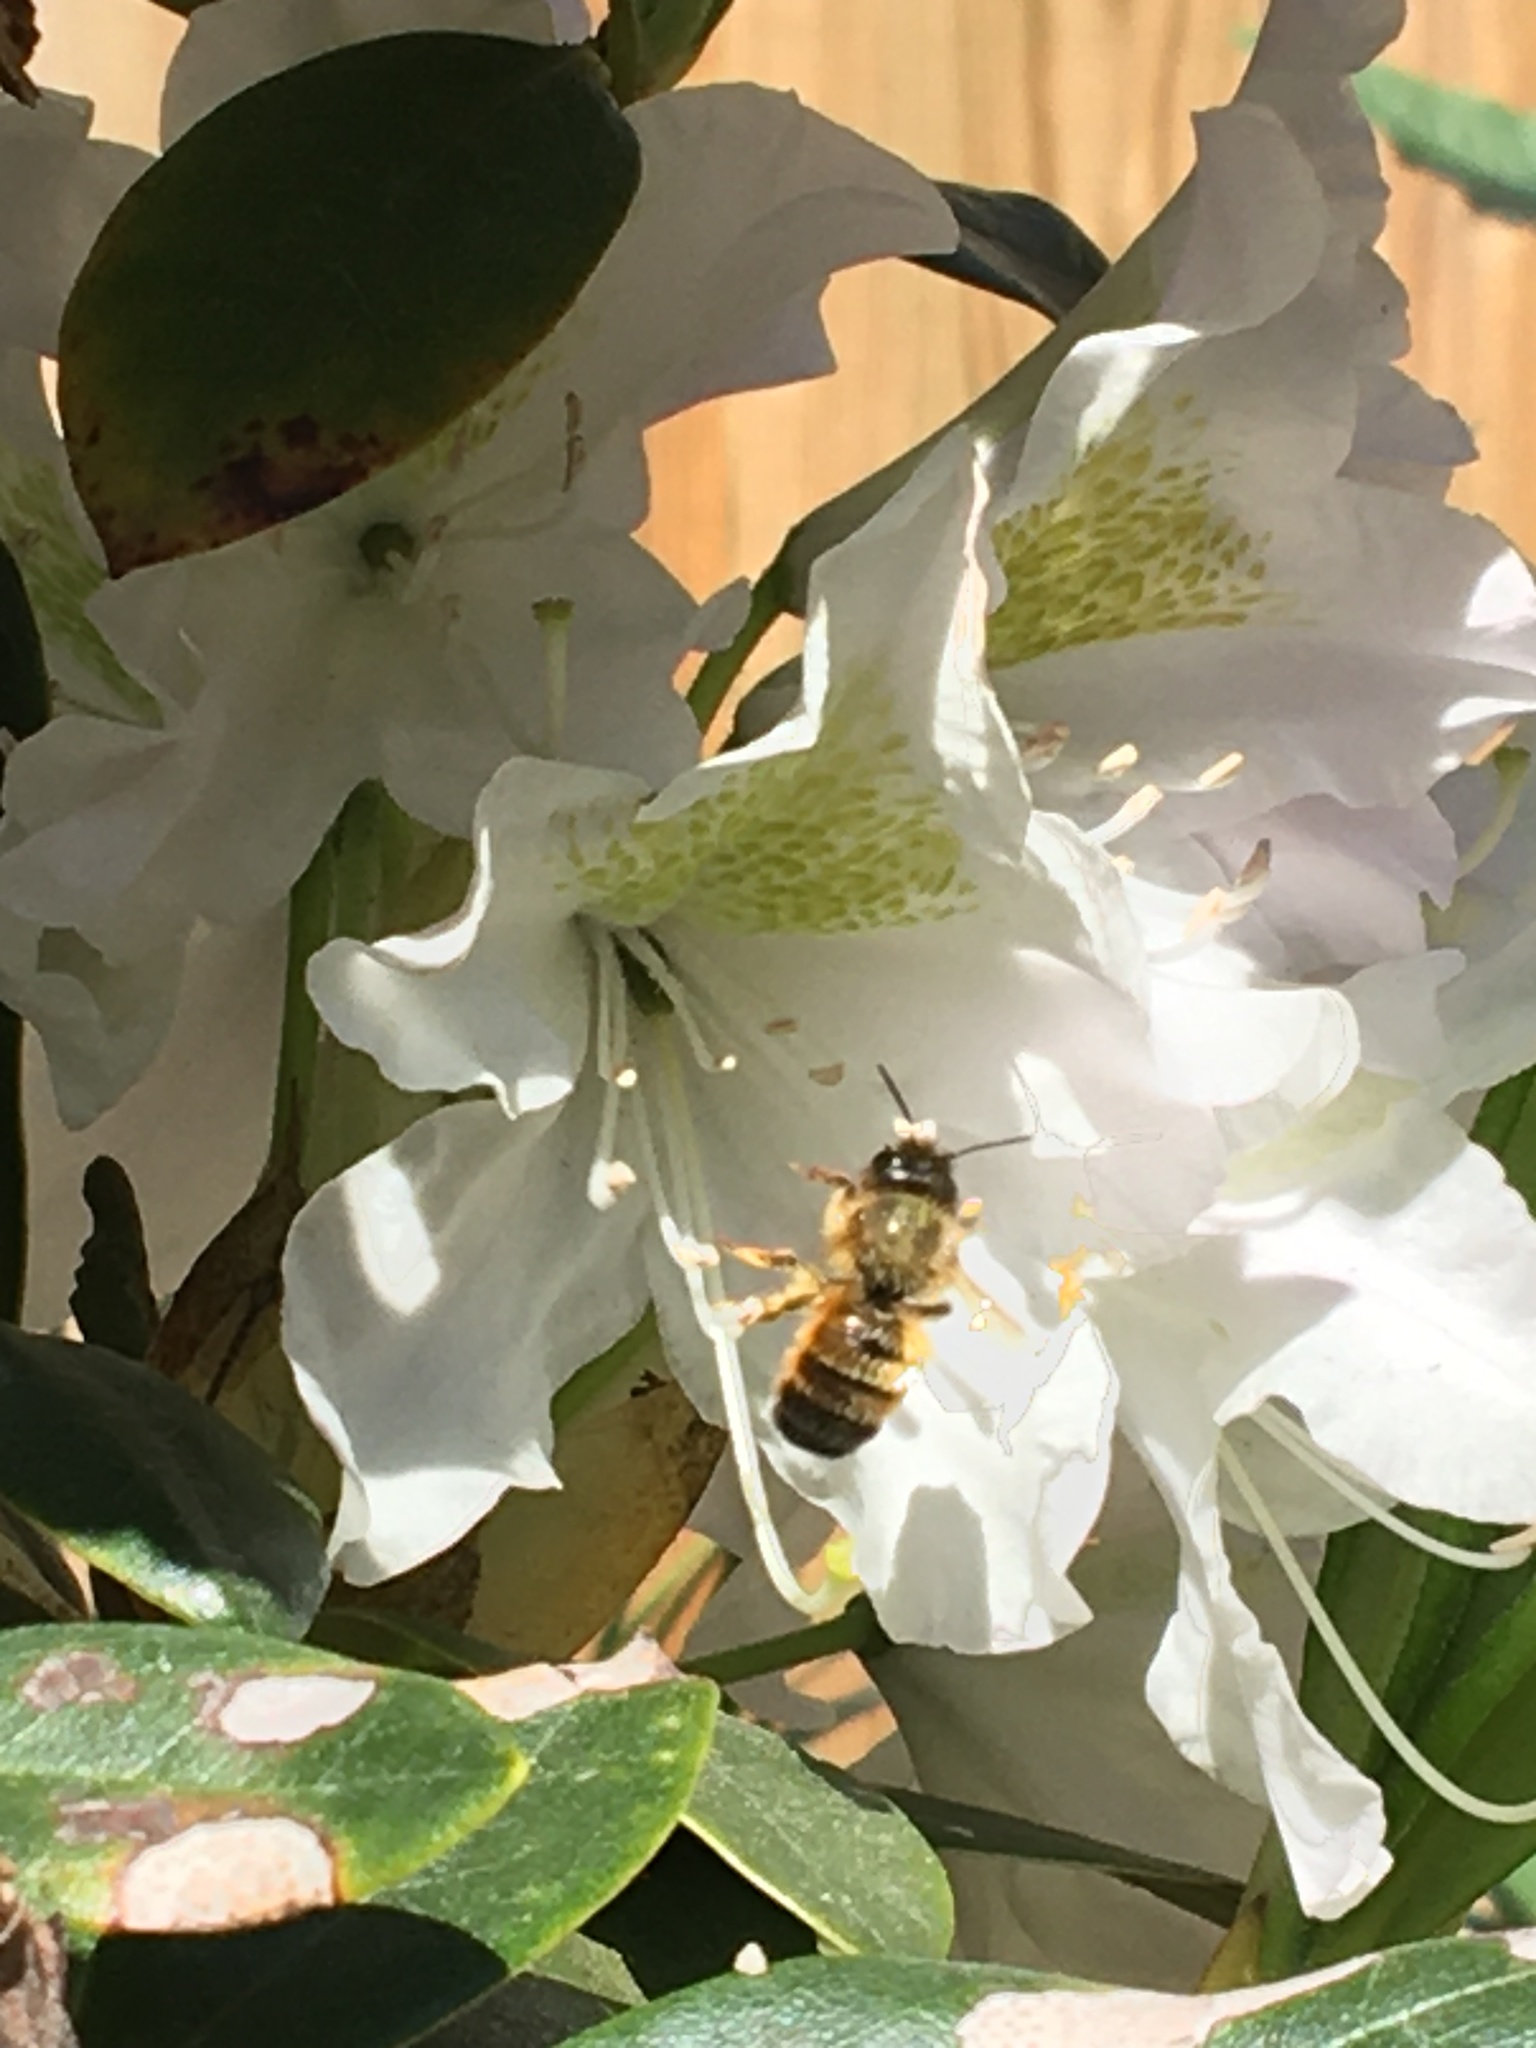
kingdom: Animalia
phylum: Arthropoda
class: Insecta
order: Hymenoptera
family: Megachilidae
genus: Osmia
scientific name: Osmia bicornis
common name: Red mason bee
